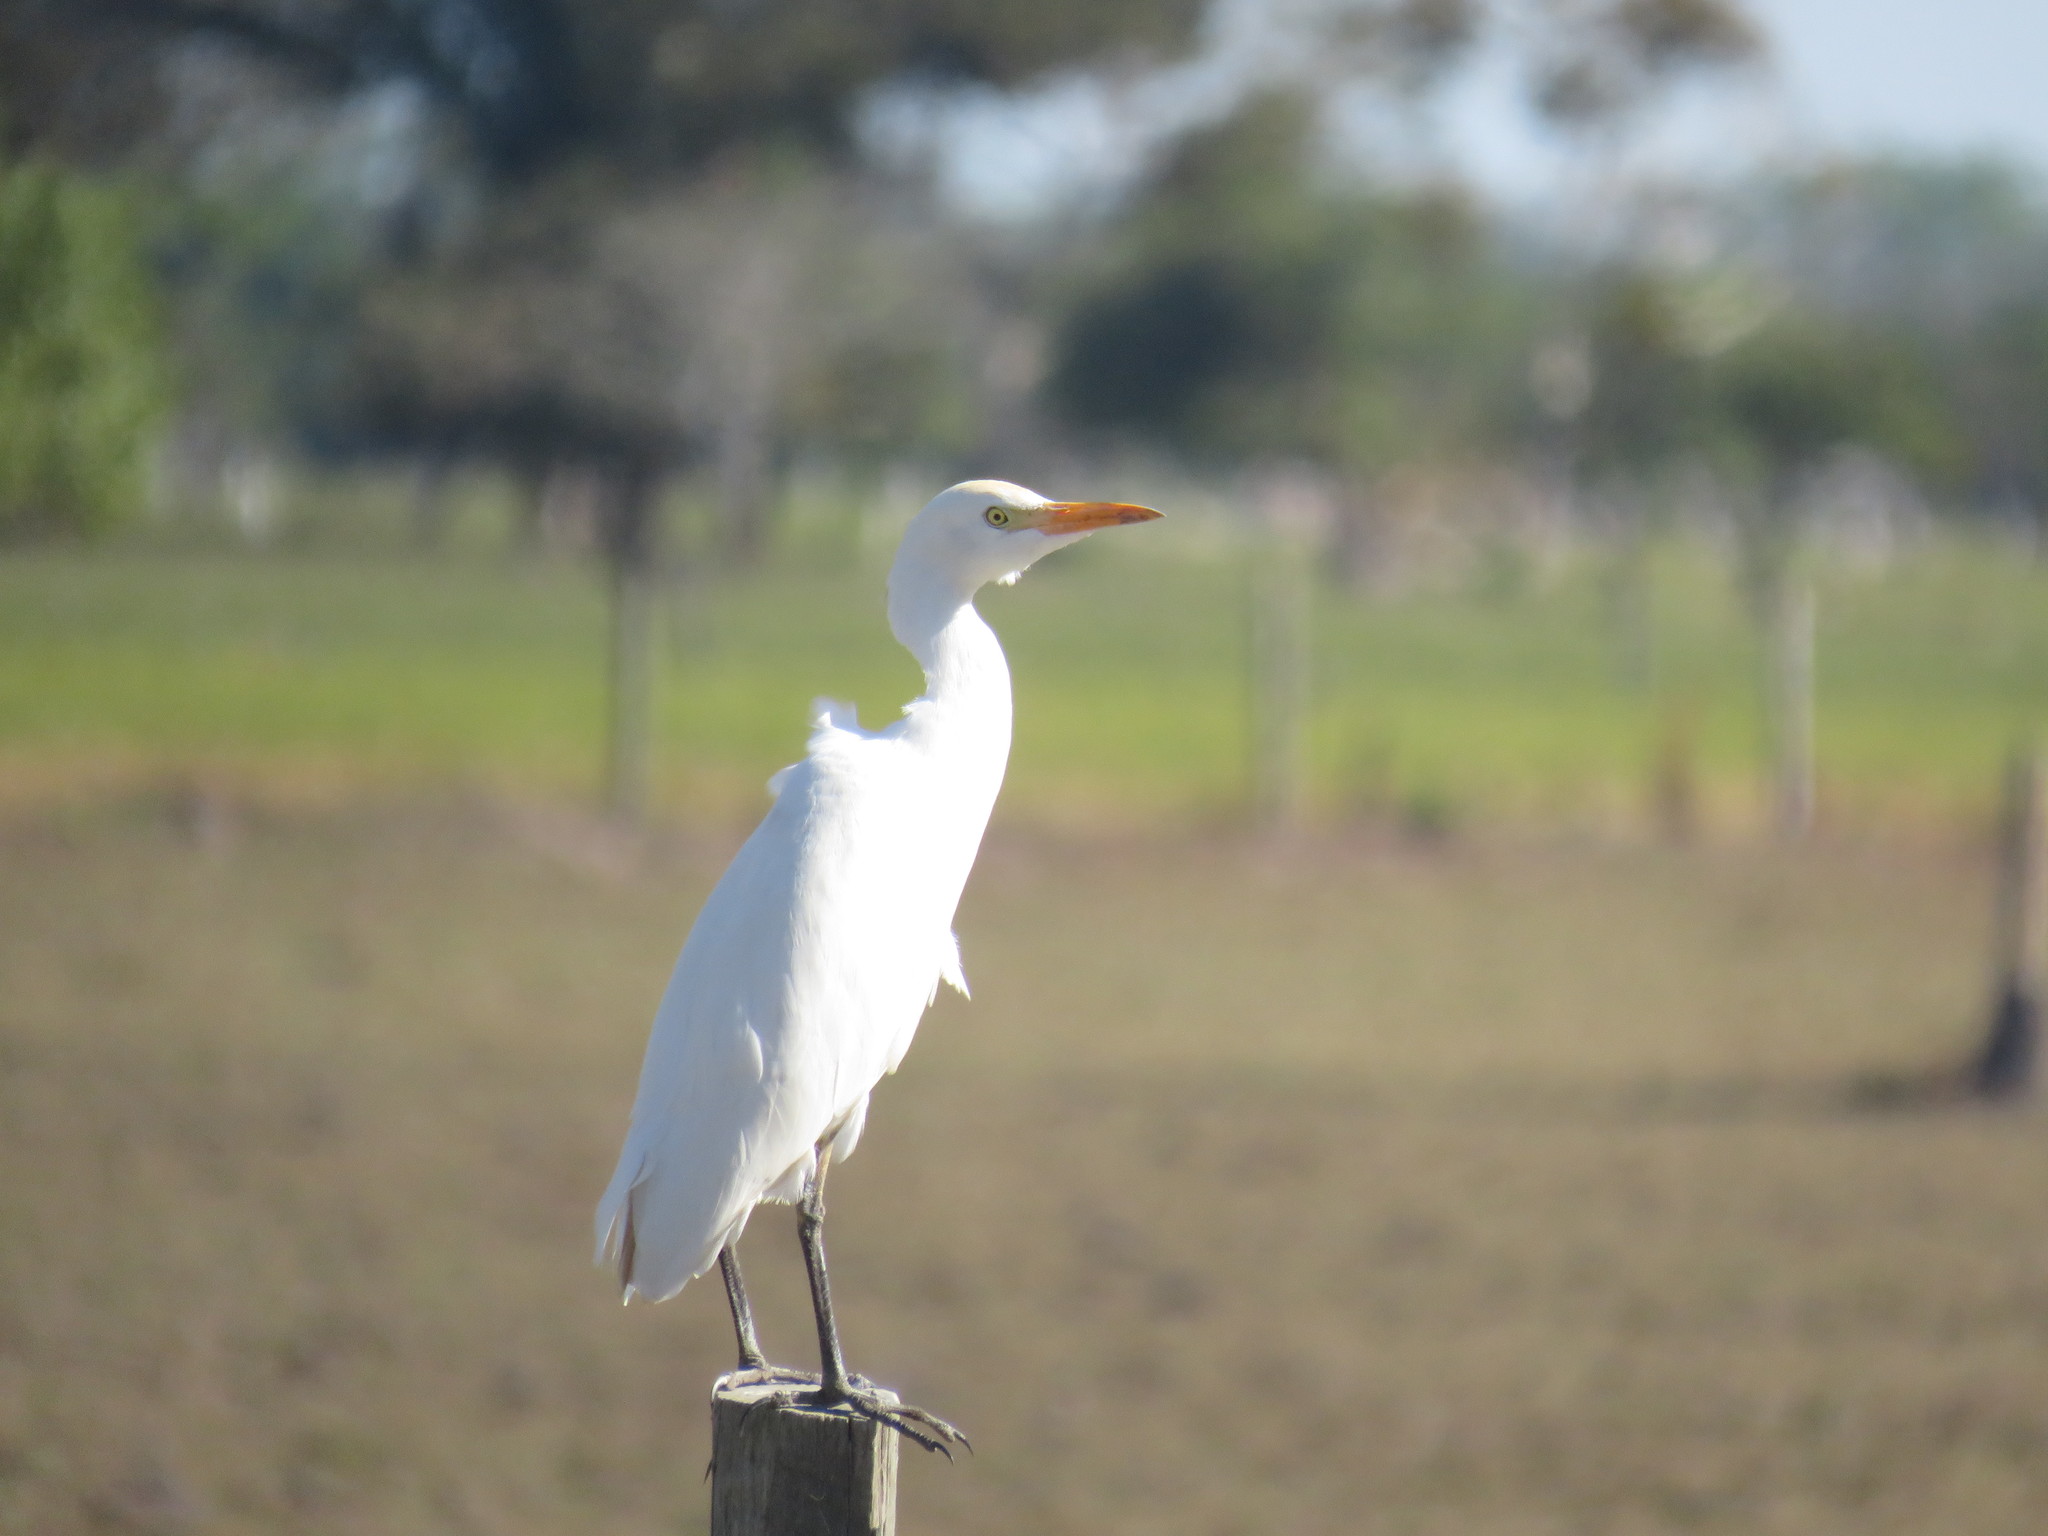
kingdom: Animalia
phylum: Chordata
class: Aves
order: Pelecaniformes
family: Ardeidae
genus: Bubulcus
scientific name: Bubulcus ibis
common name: Cattle egret
